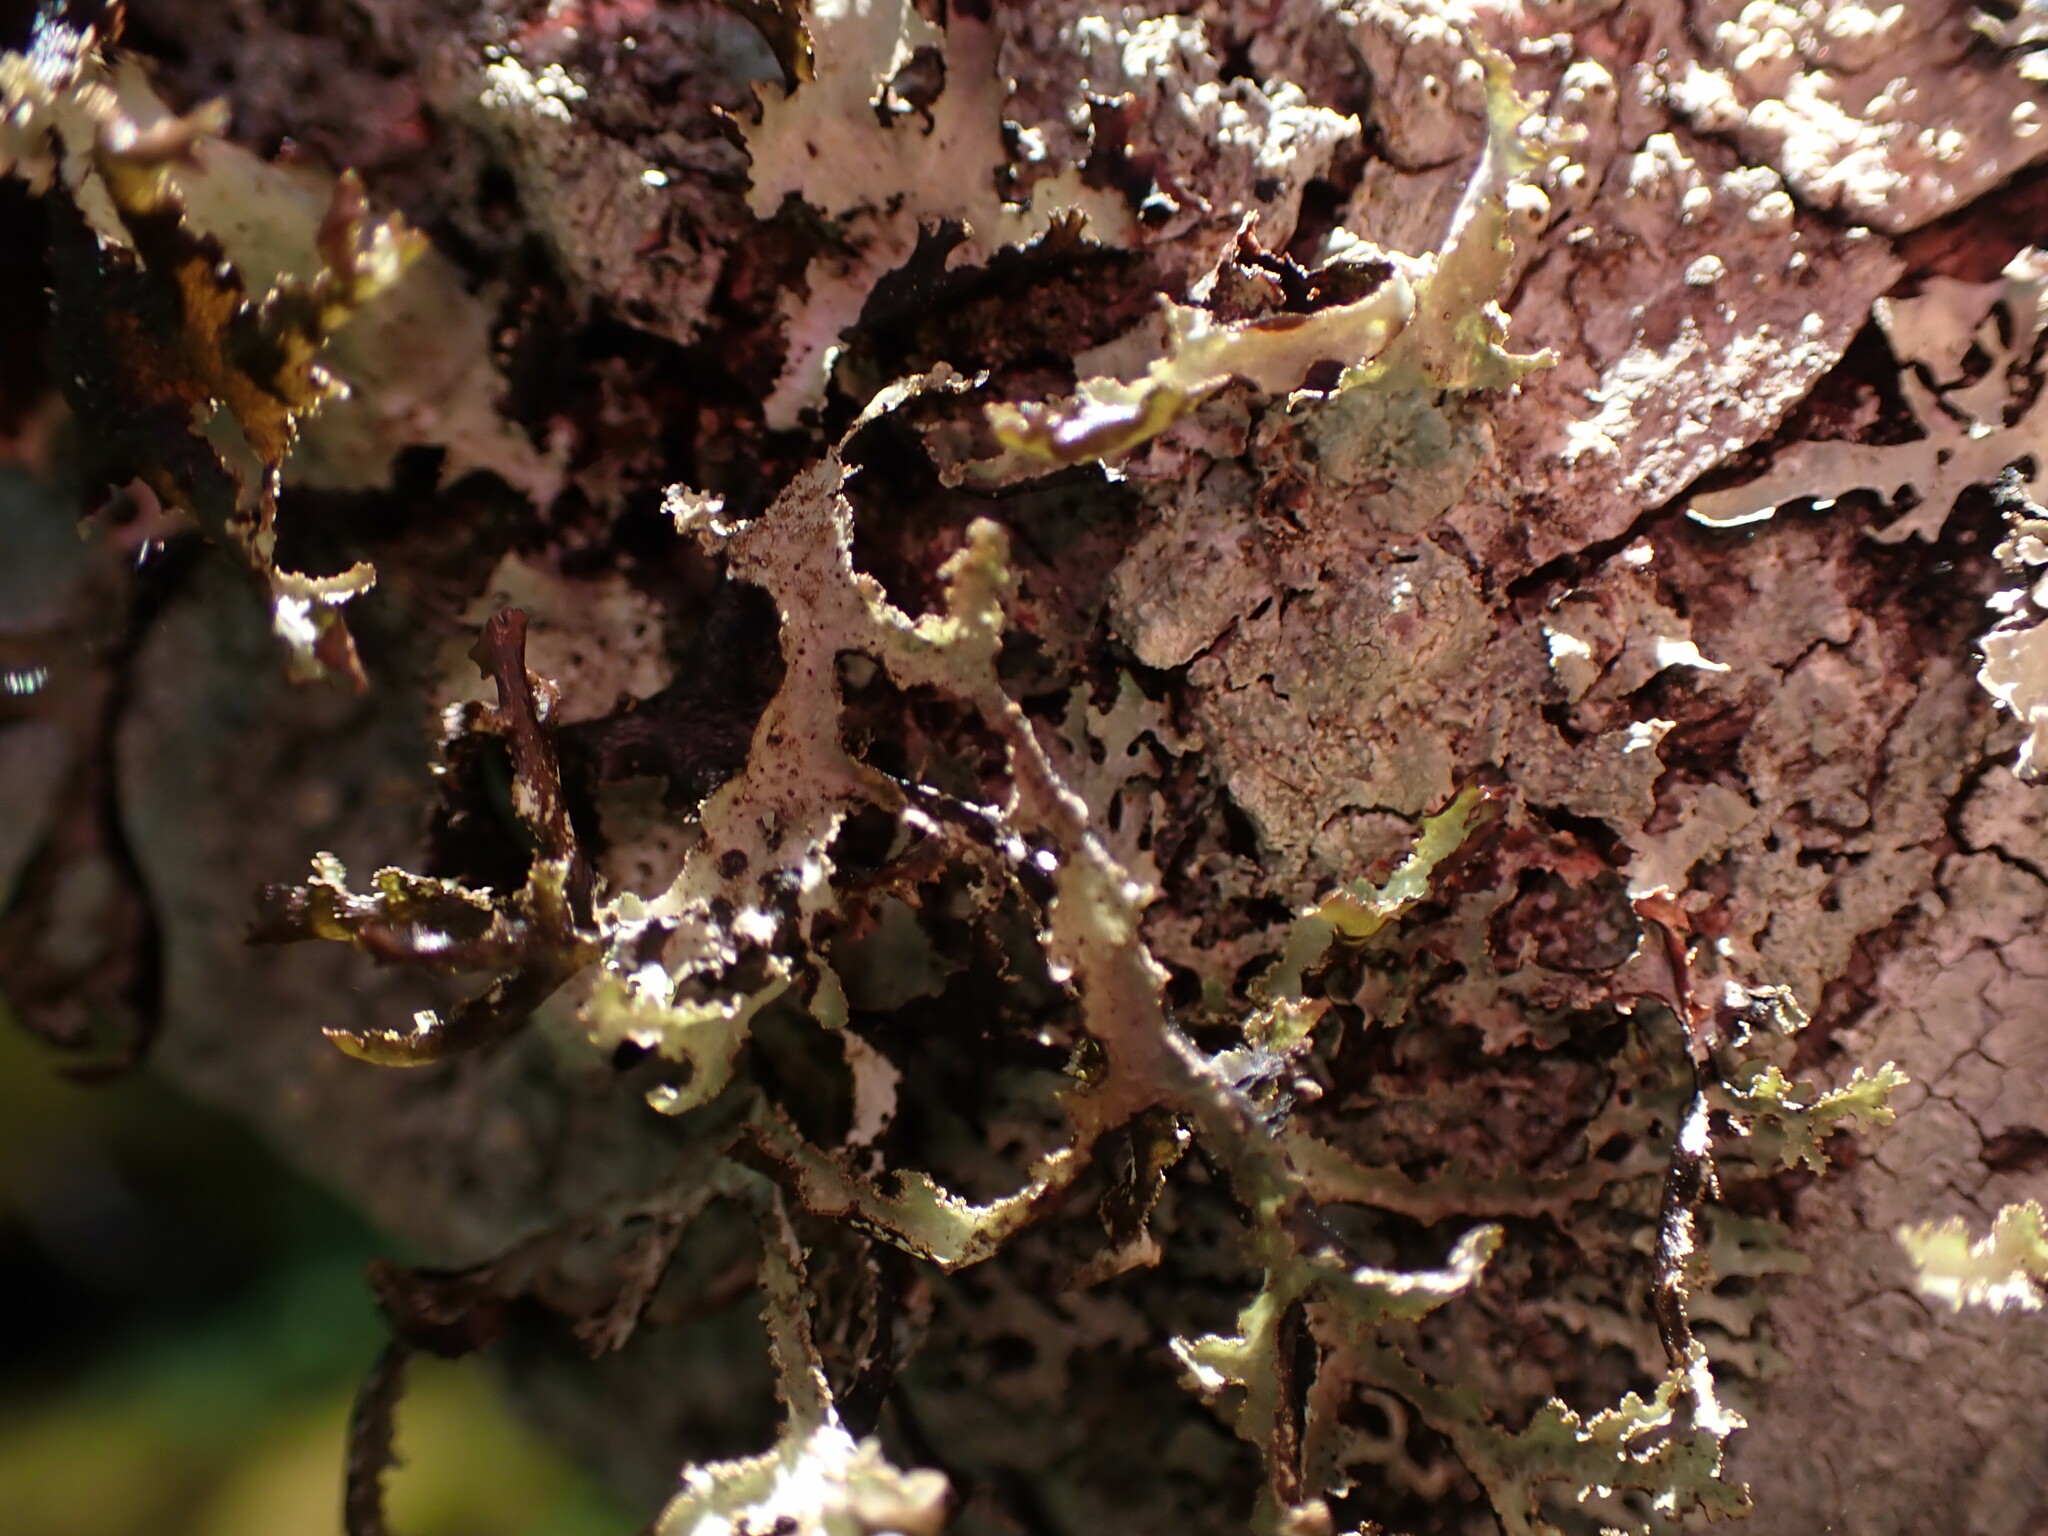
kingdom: Fungi
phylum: Ascomycota
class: Lecanoromycetes
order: Lecanorales
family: Parmeliaceae
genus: Platismatia
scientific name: Platismatia herrei
